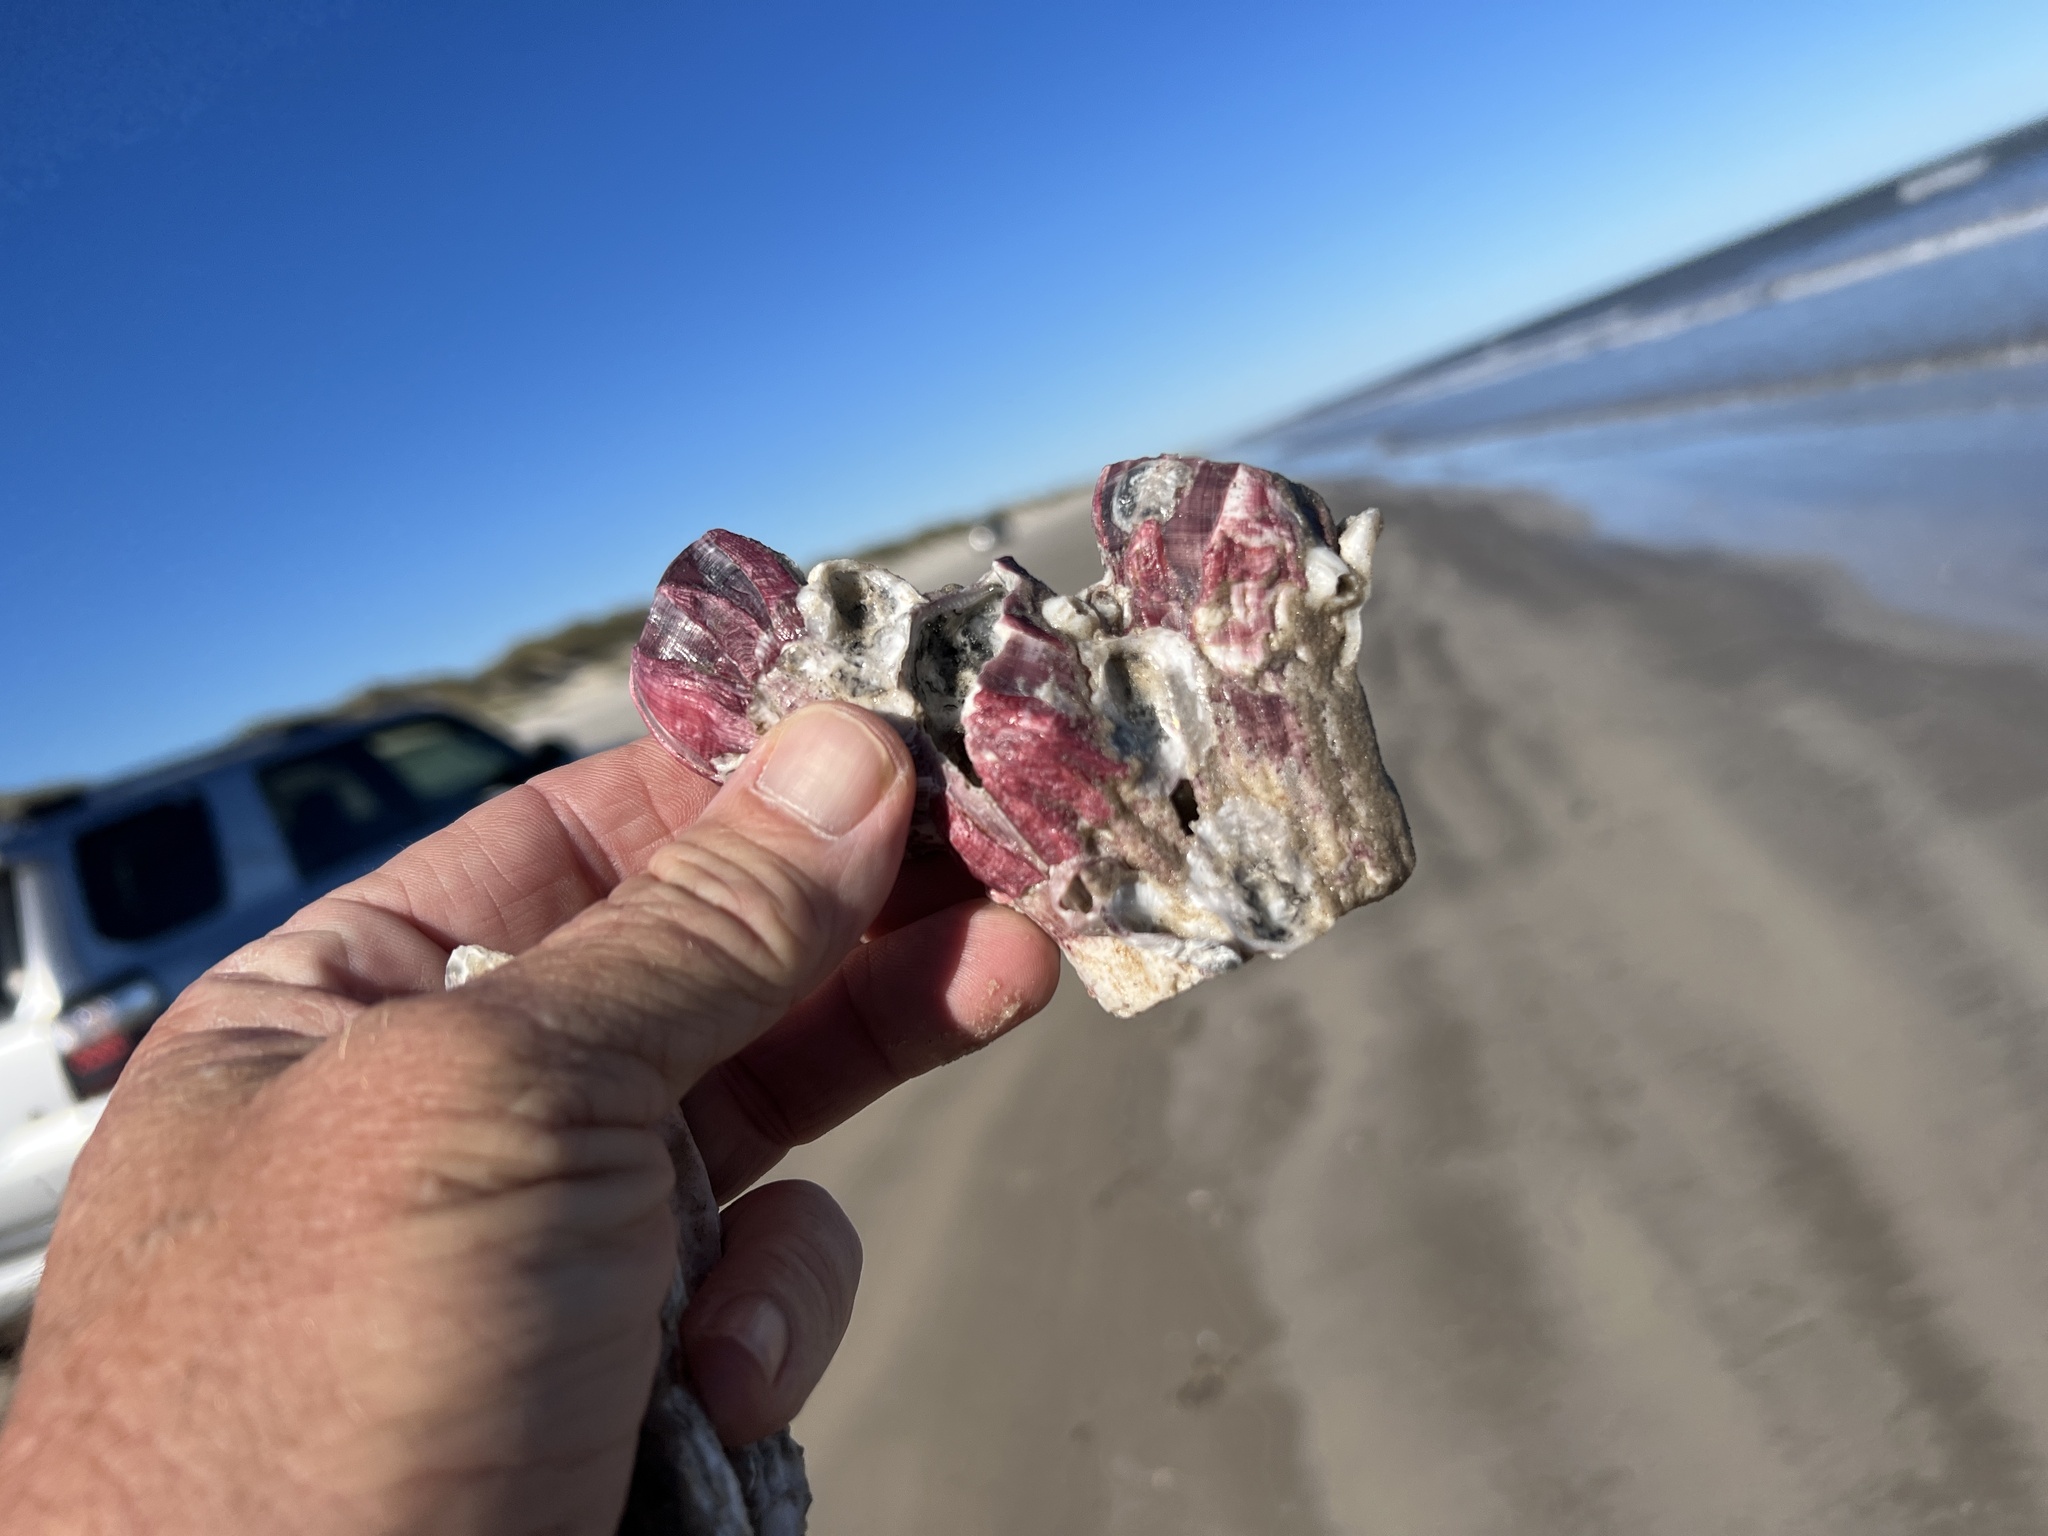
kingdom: Animalia
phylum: Arthropoda
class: Maxillopoda
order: Sessilia
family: Balanidae
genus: Megabalanus
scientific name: Megabalanus tintinnabulum
